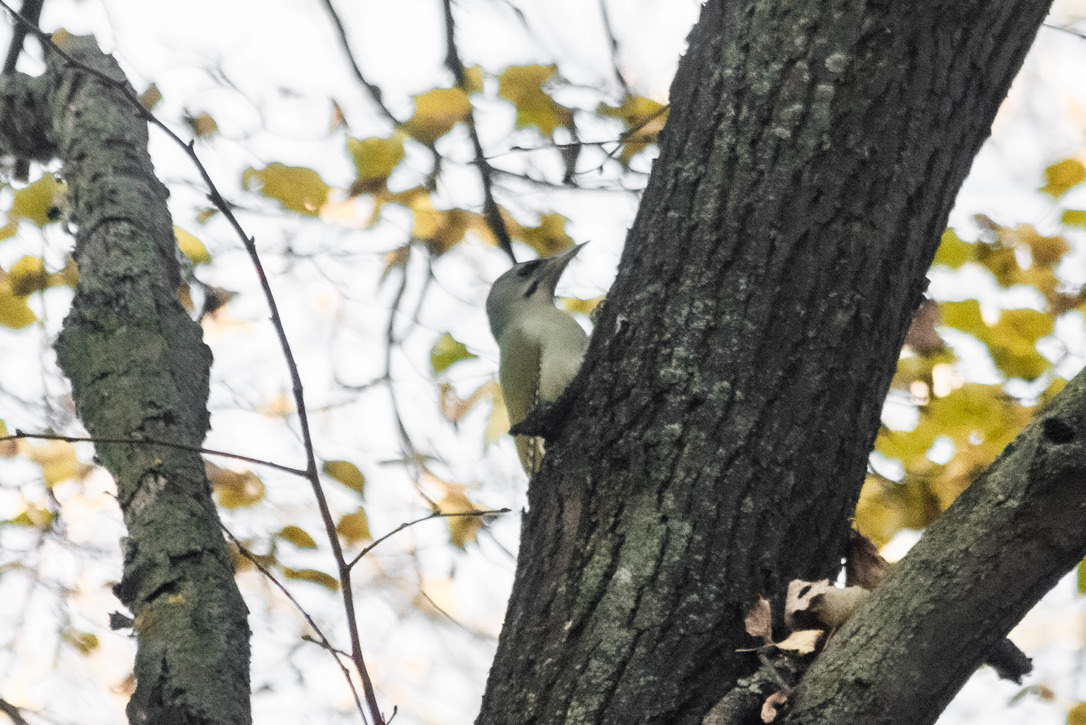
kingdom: Animalia
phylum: Chordata
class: Aves
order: Piciformes
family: Picidae
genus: Picus
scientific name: Picus canus
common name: Grey-headed woodpecker
